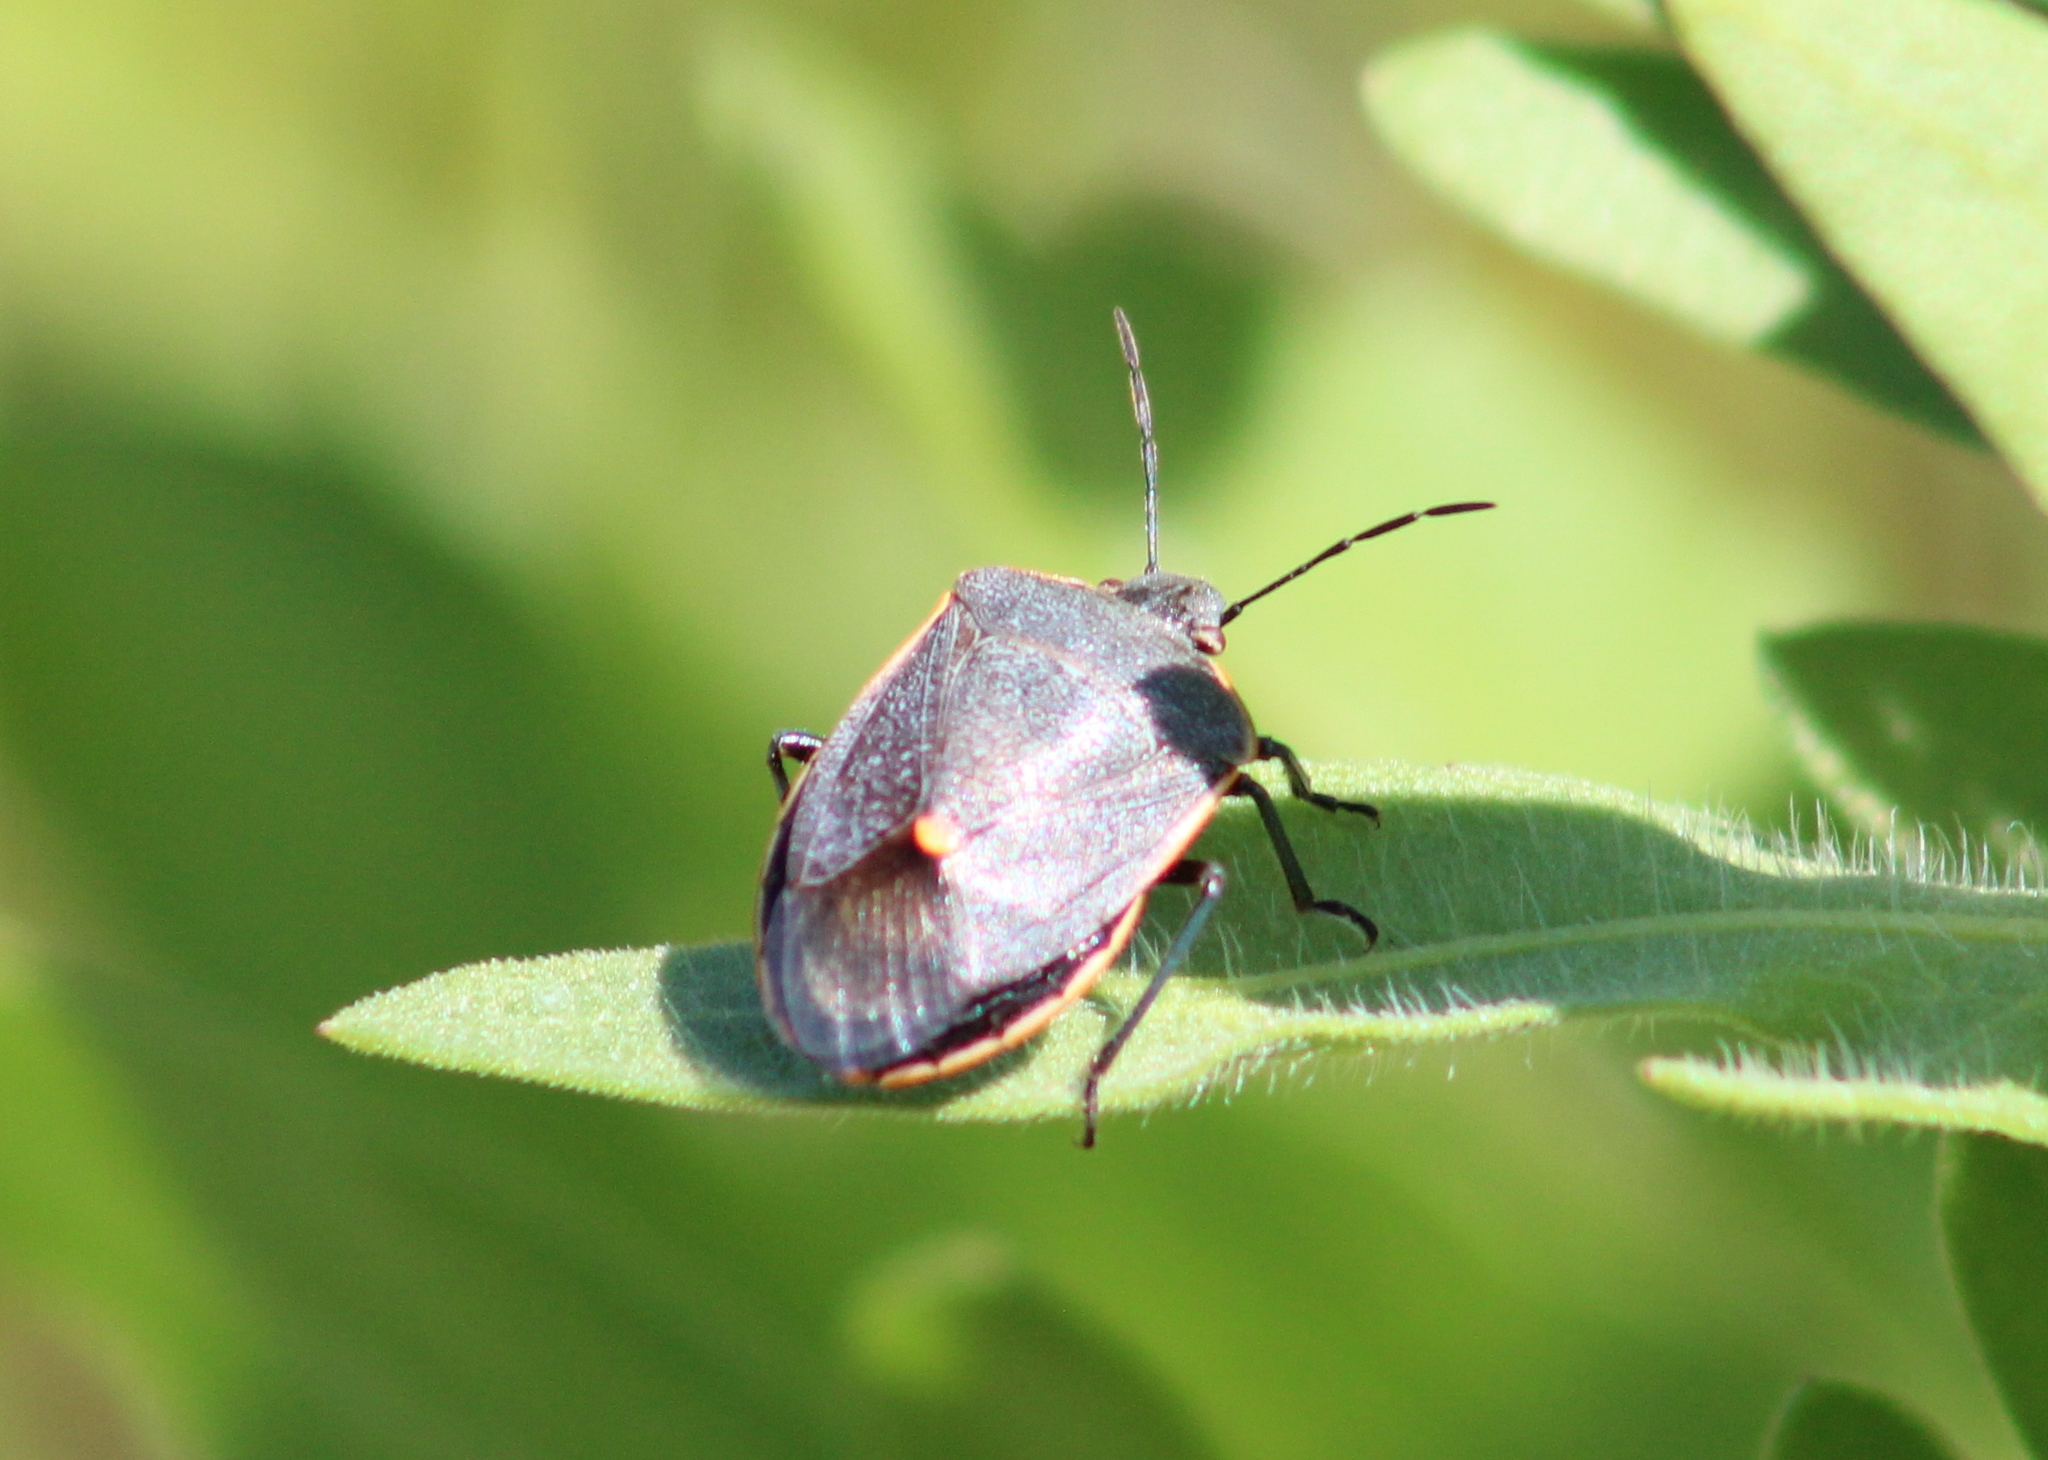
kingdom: Animalia
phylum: Arthropoda
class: Insecta
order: Hemiptera
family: Pentatomidae
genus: Chlorochroa
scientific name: Chlorochroa ligata
